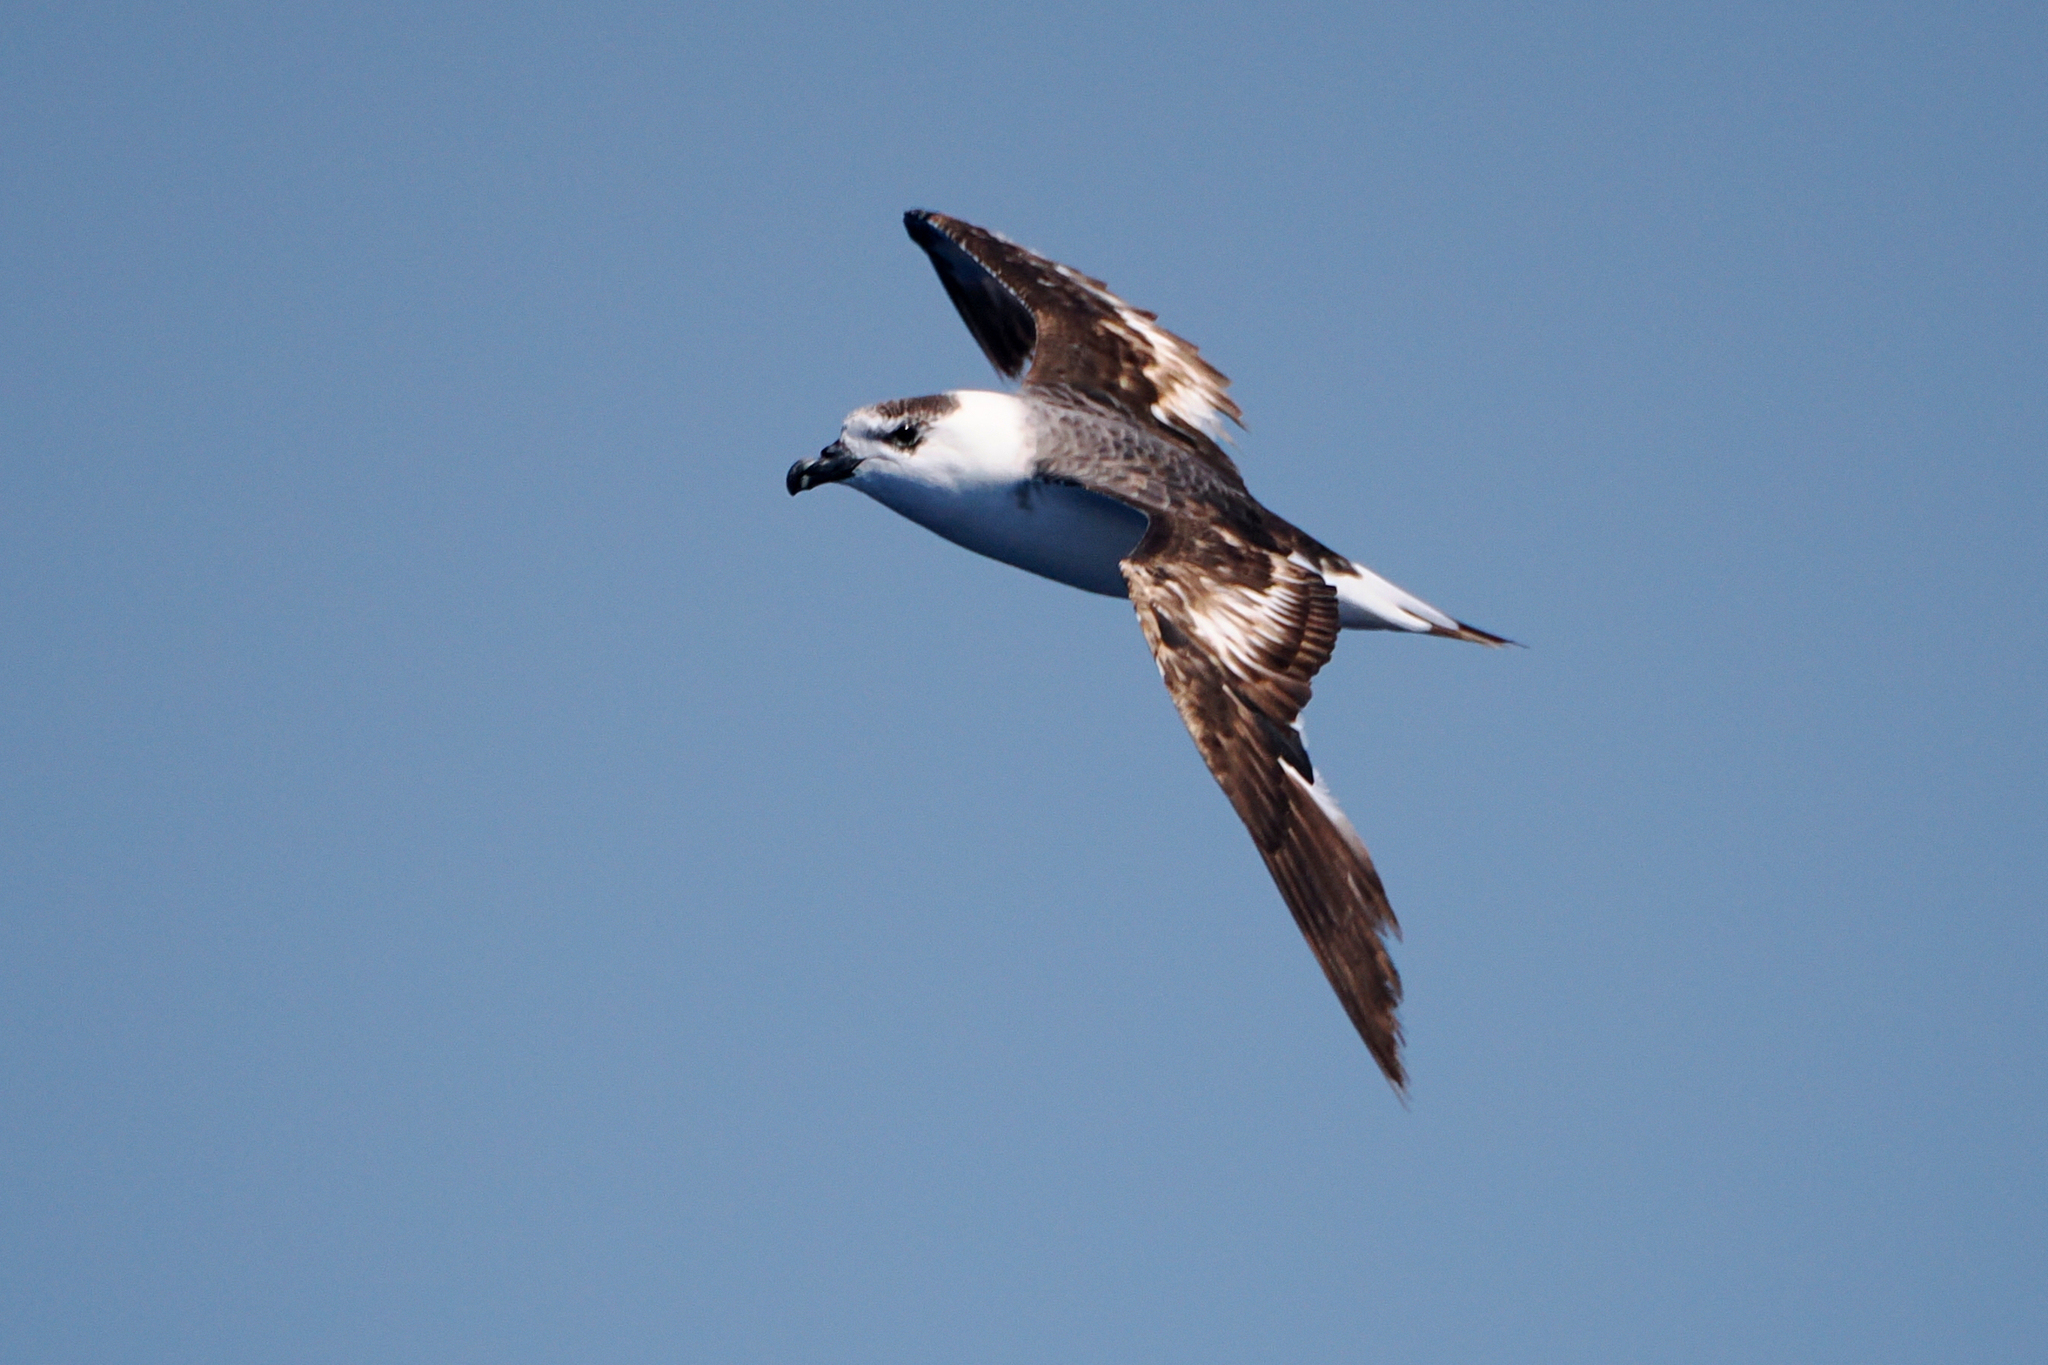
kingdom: Animalia
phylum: Chordata
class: Aves
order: Procellariiformes
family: Procellariidae
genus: Pterodroma
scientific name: Pterodroma hasitata
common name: Black-capped petrel
